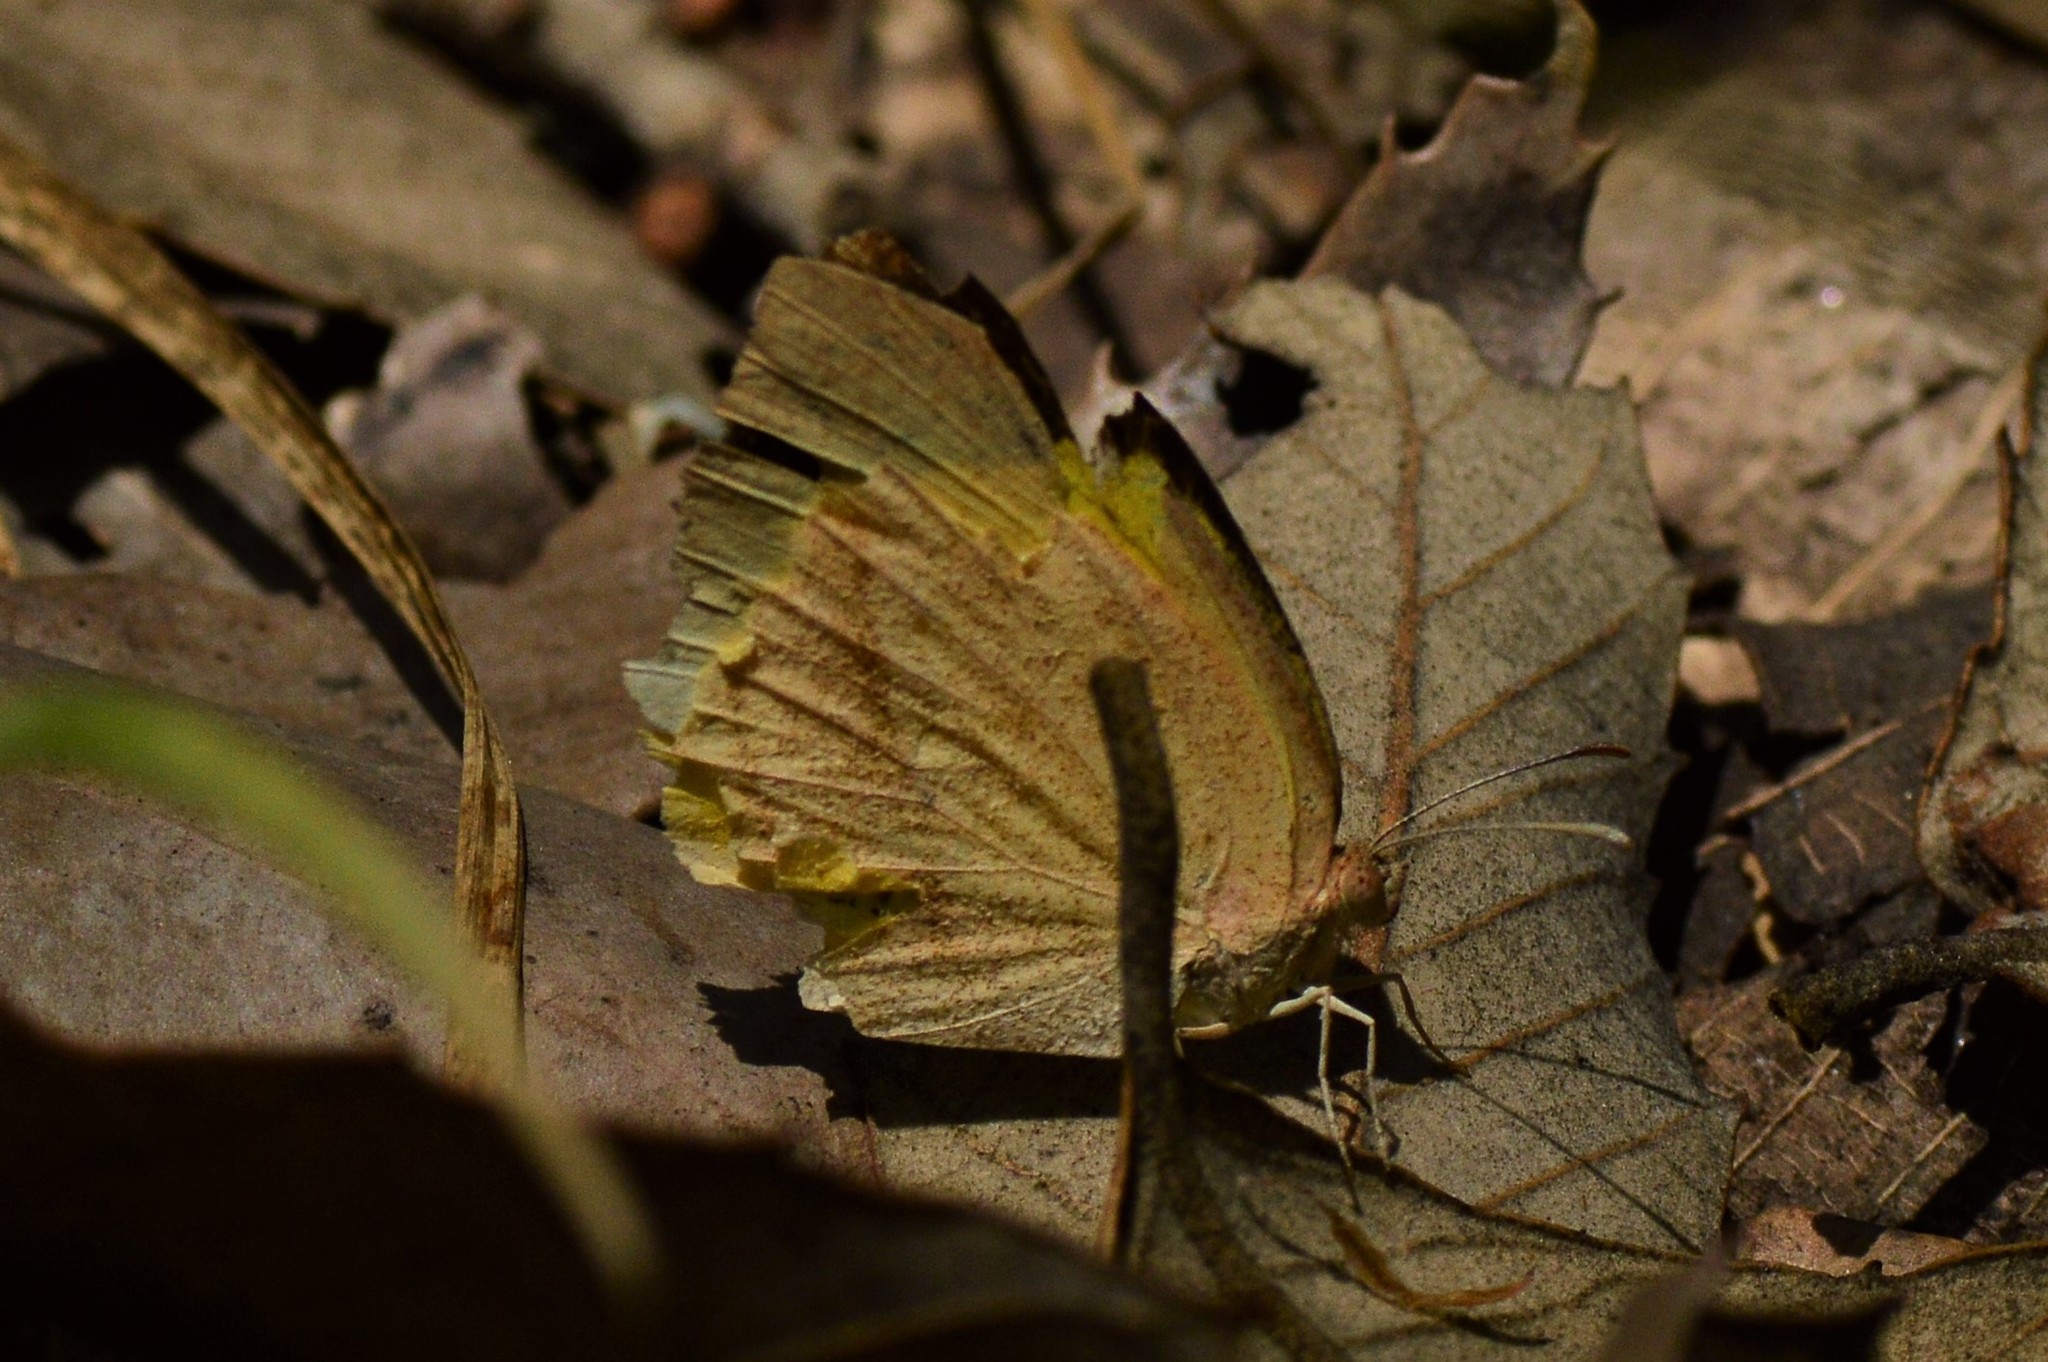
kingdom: Animalia
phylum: Arthropoda
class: Insecta
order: Lepidoptera
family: Pieridae
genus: Eurema
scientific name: Eurema laeta
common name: Spotless grass yellow
